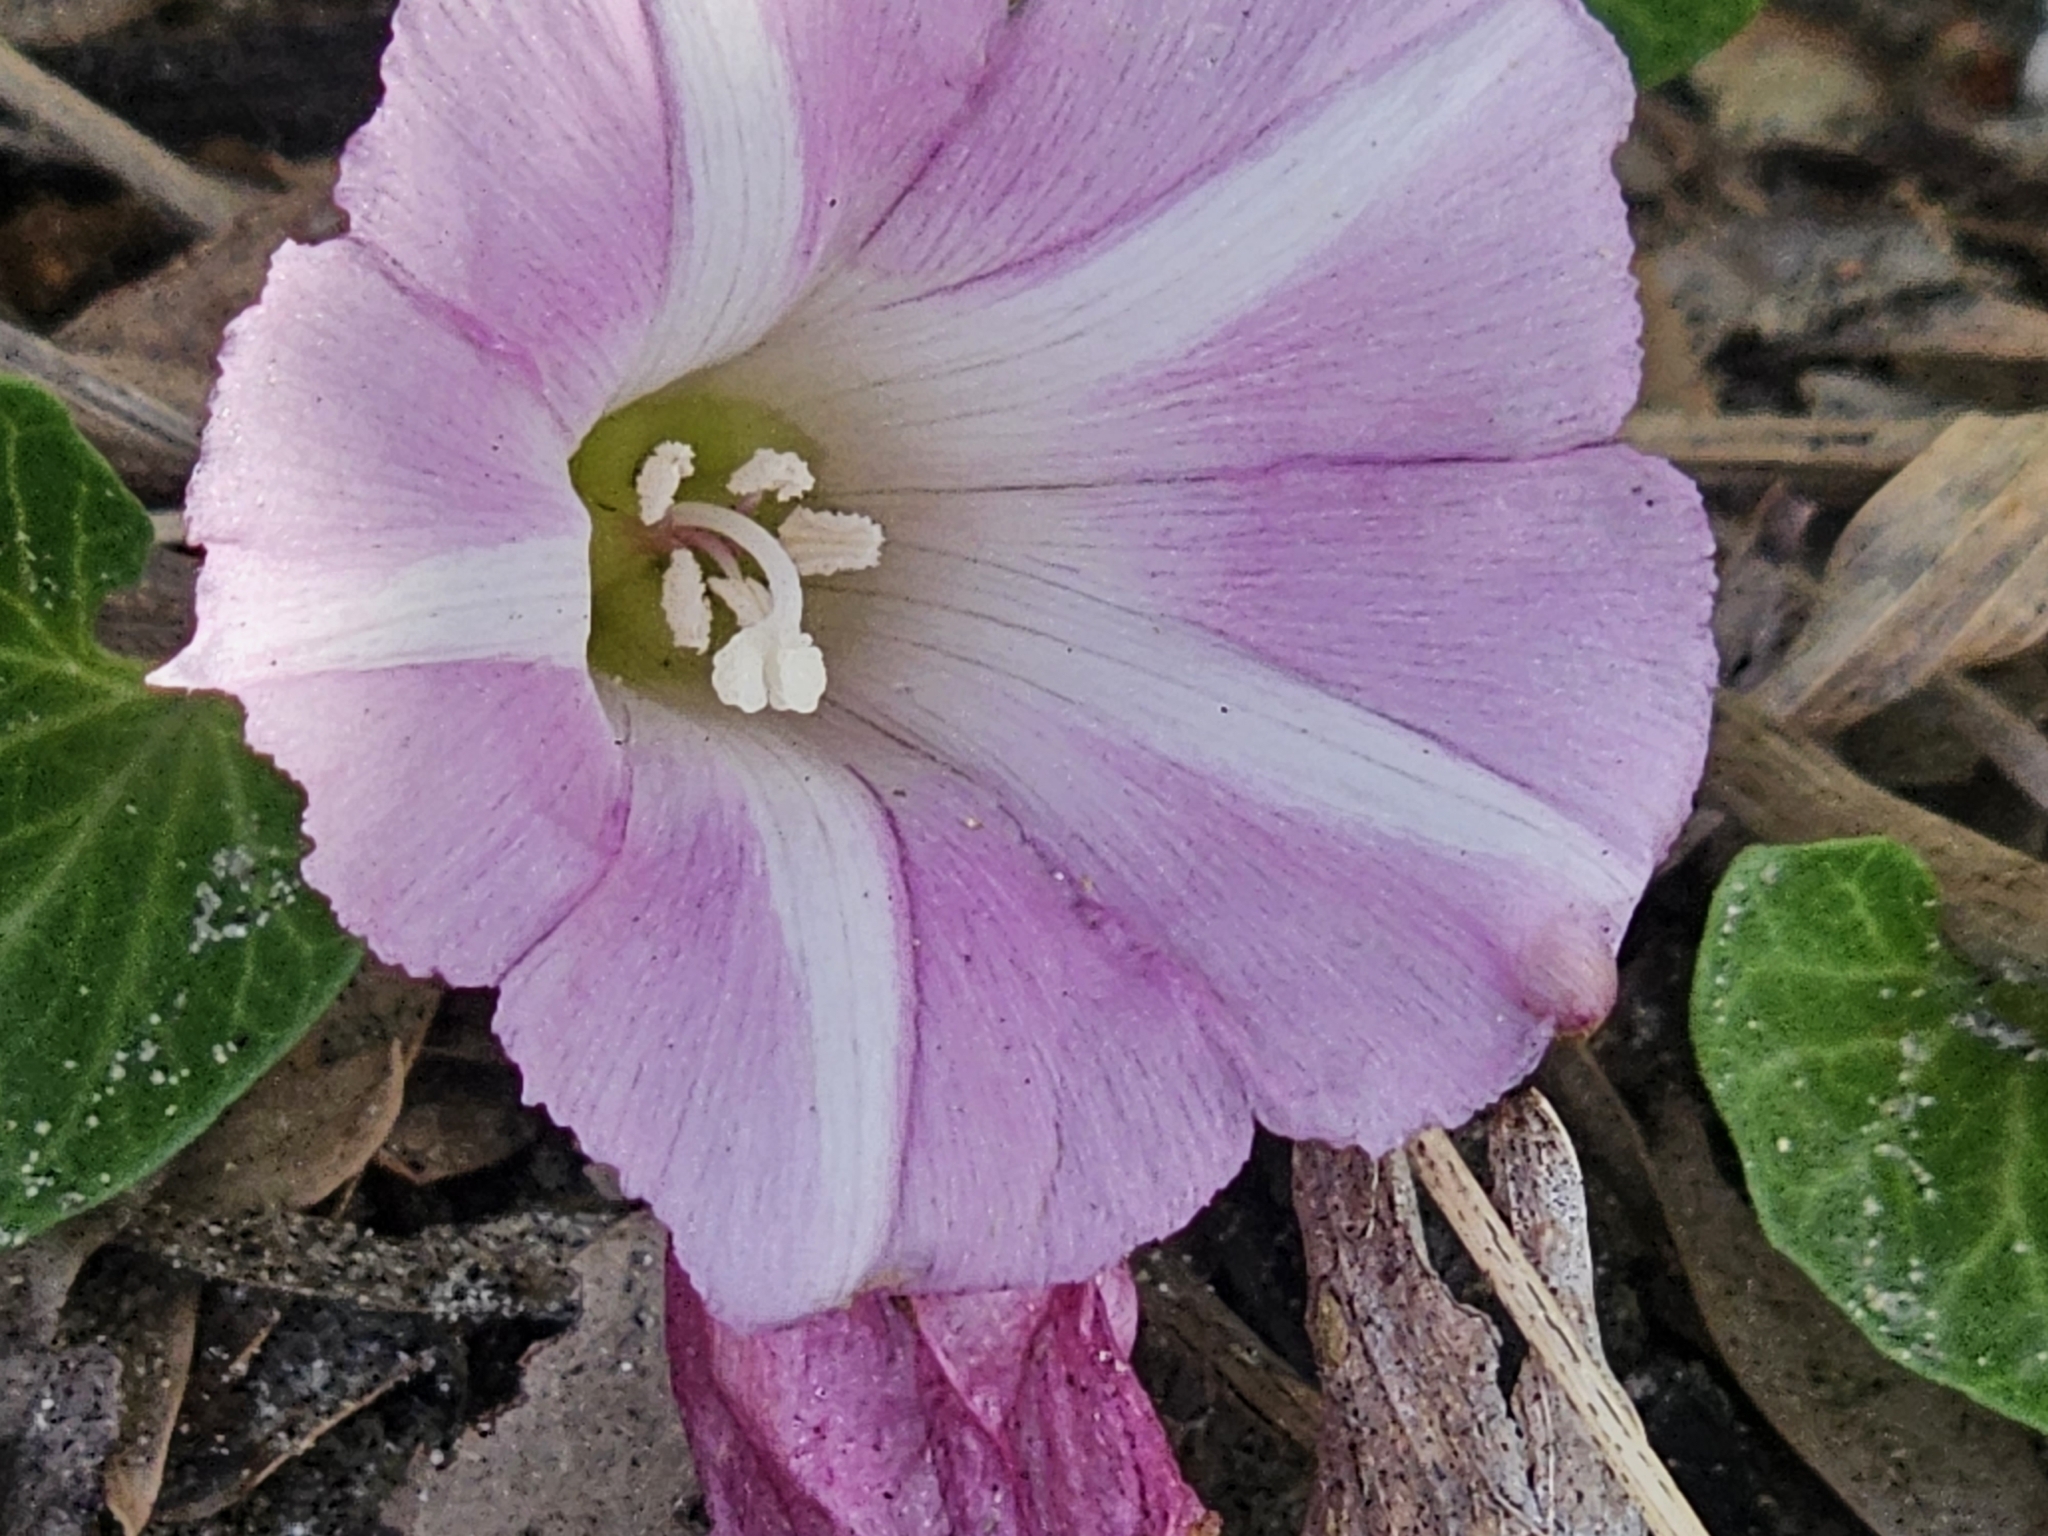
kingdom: Plantae
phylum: Tracheophyta
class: Magnoliopsida
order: Solanales
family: Convolvulaceae
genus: Calystegia
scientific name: Calystegia soldanella
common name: Sea bindweed
